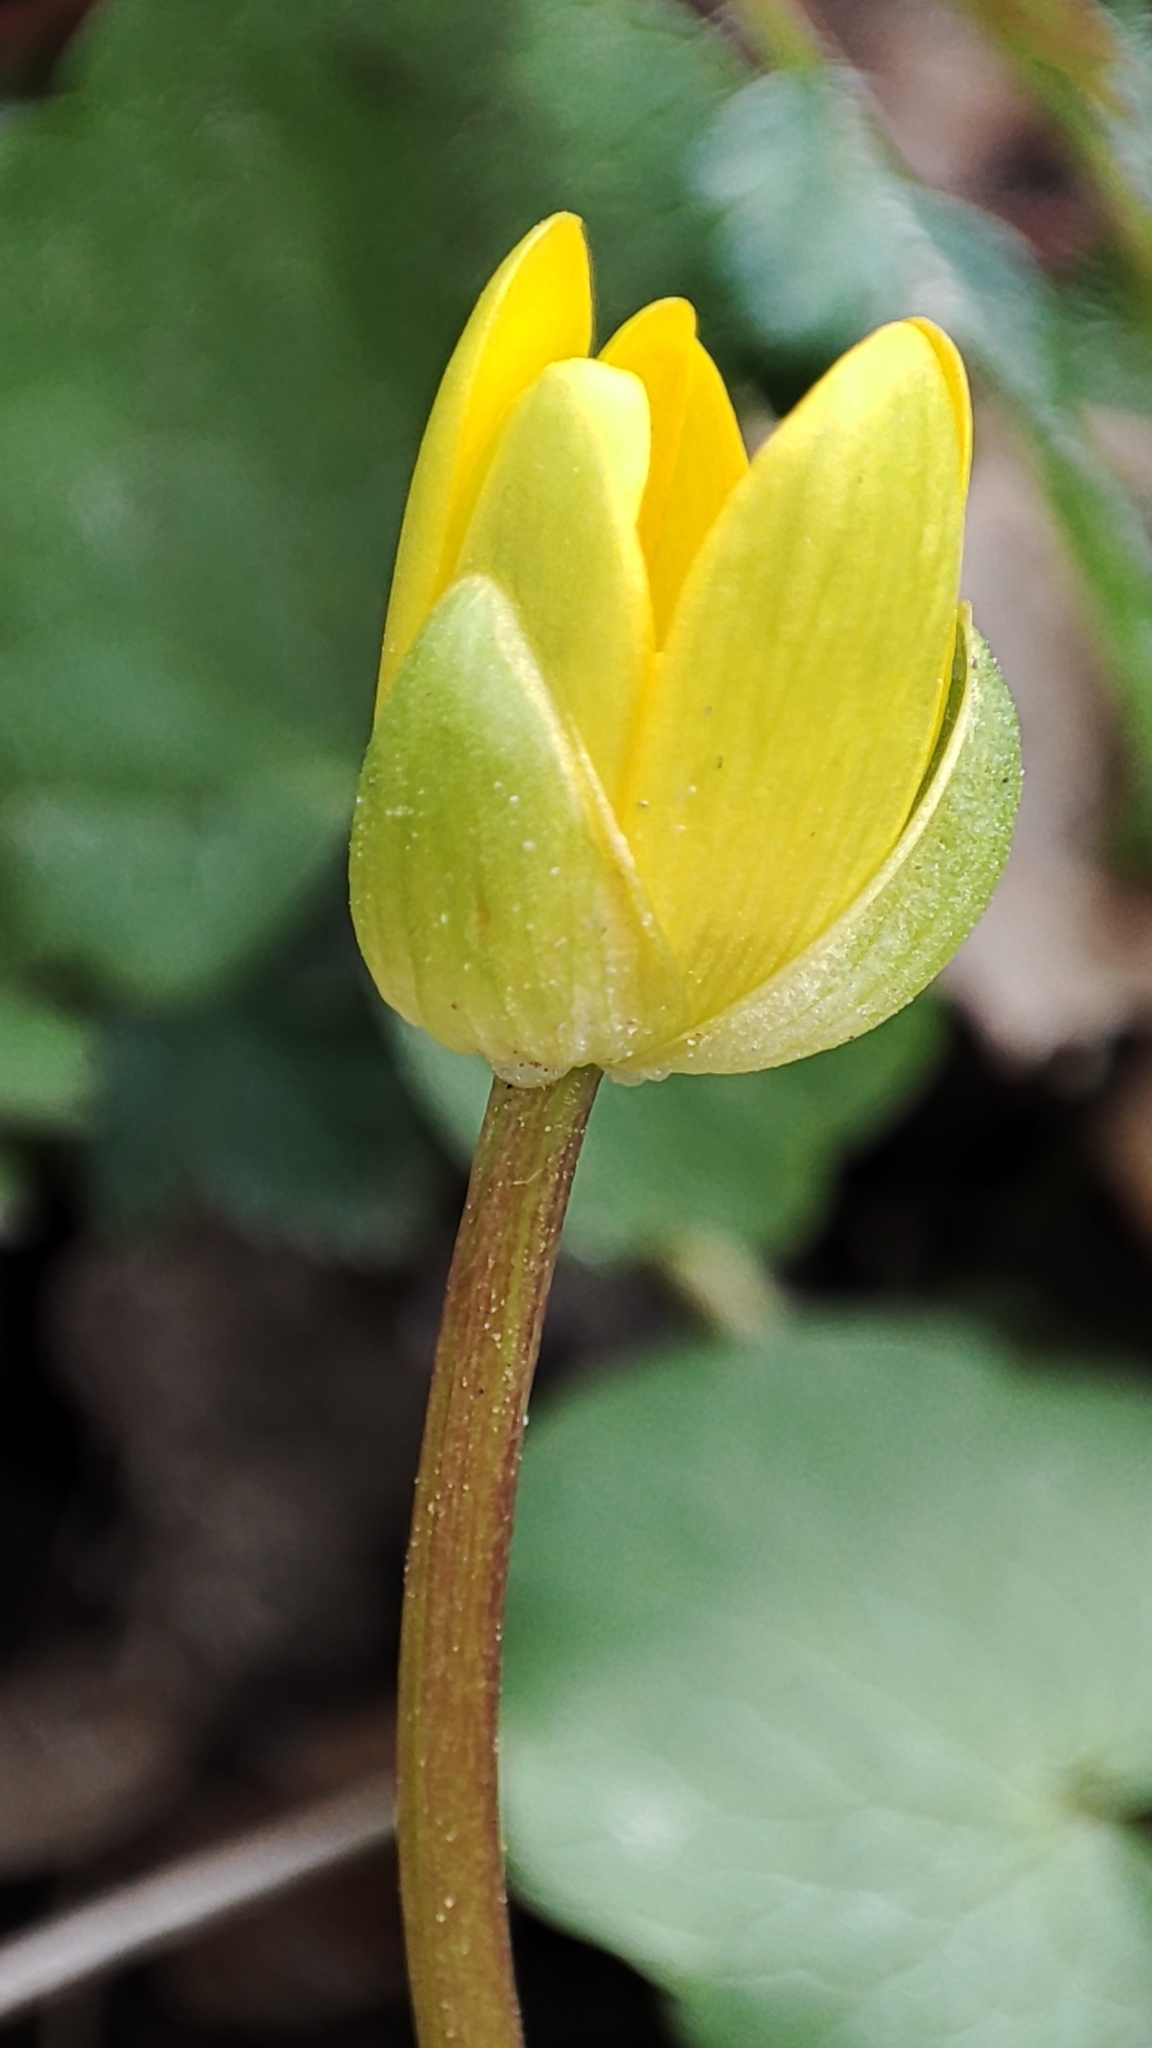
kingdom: Plantae
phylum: Tracheophyta
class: Magnoliopsida
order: Ranunculales
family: Ranunculaceae
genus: Ficaria
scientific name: Ficaria verna
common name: Lesser celandine
